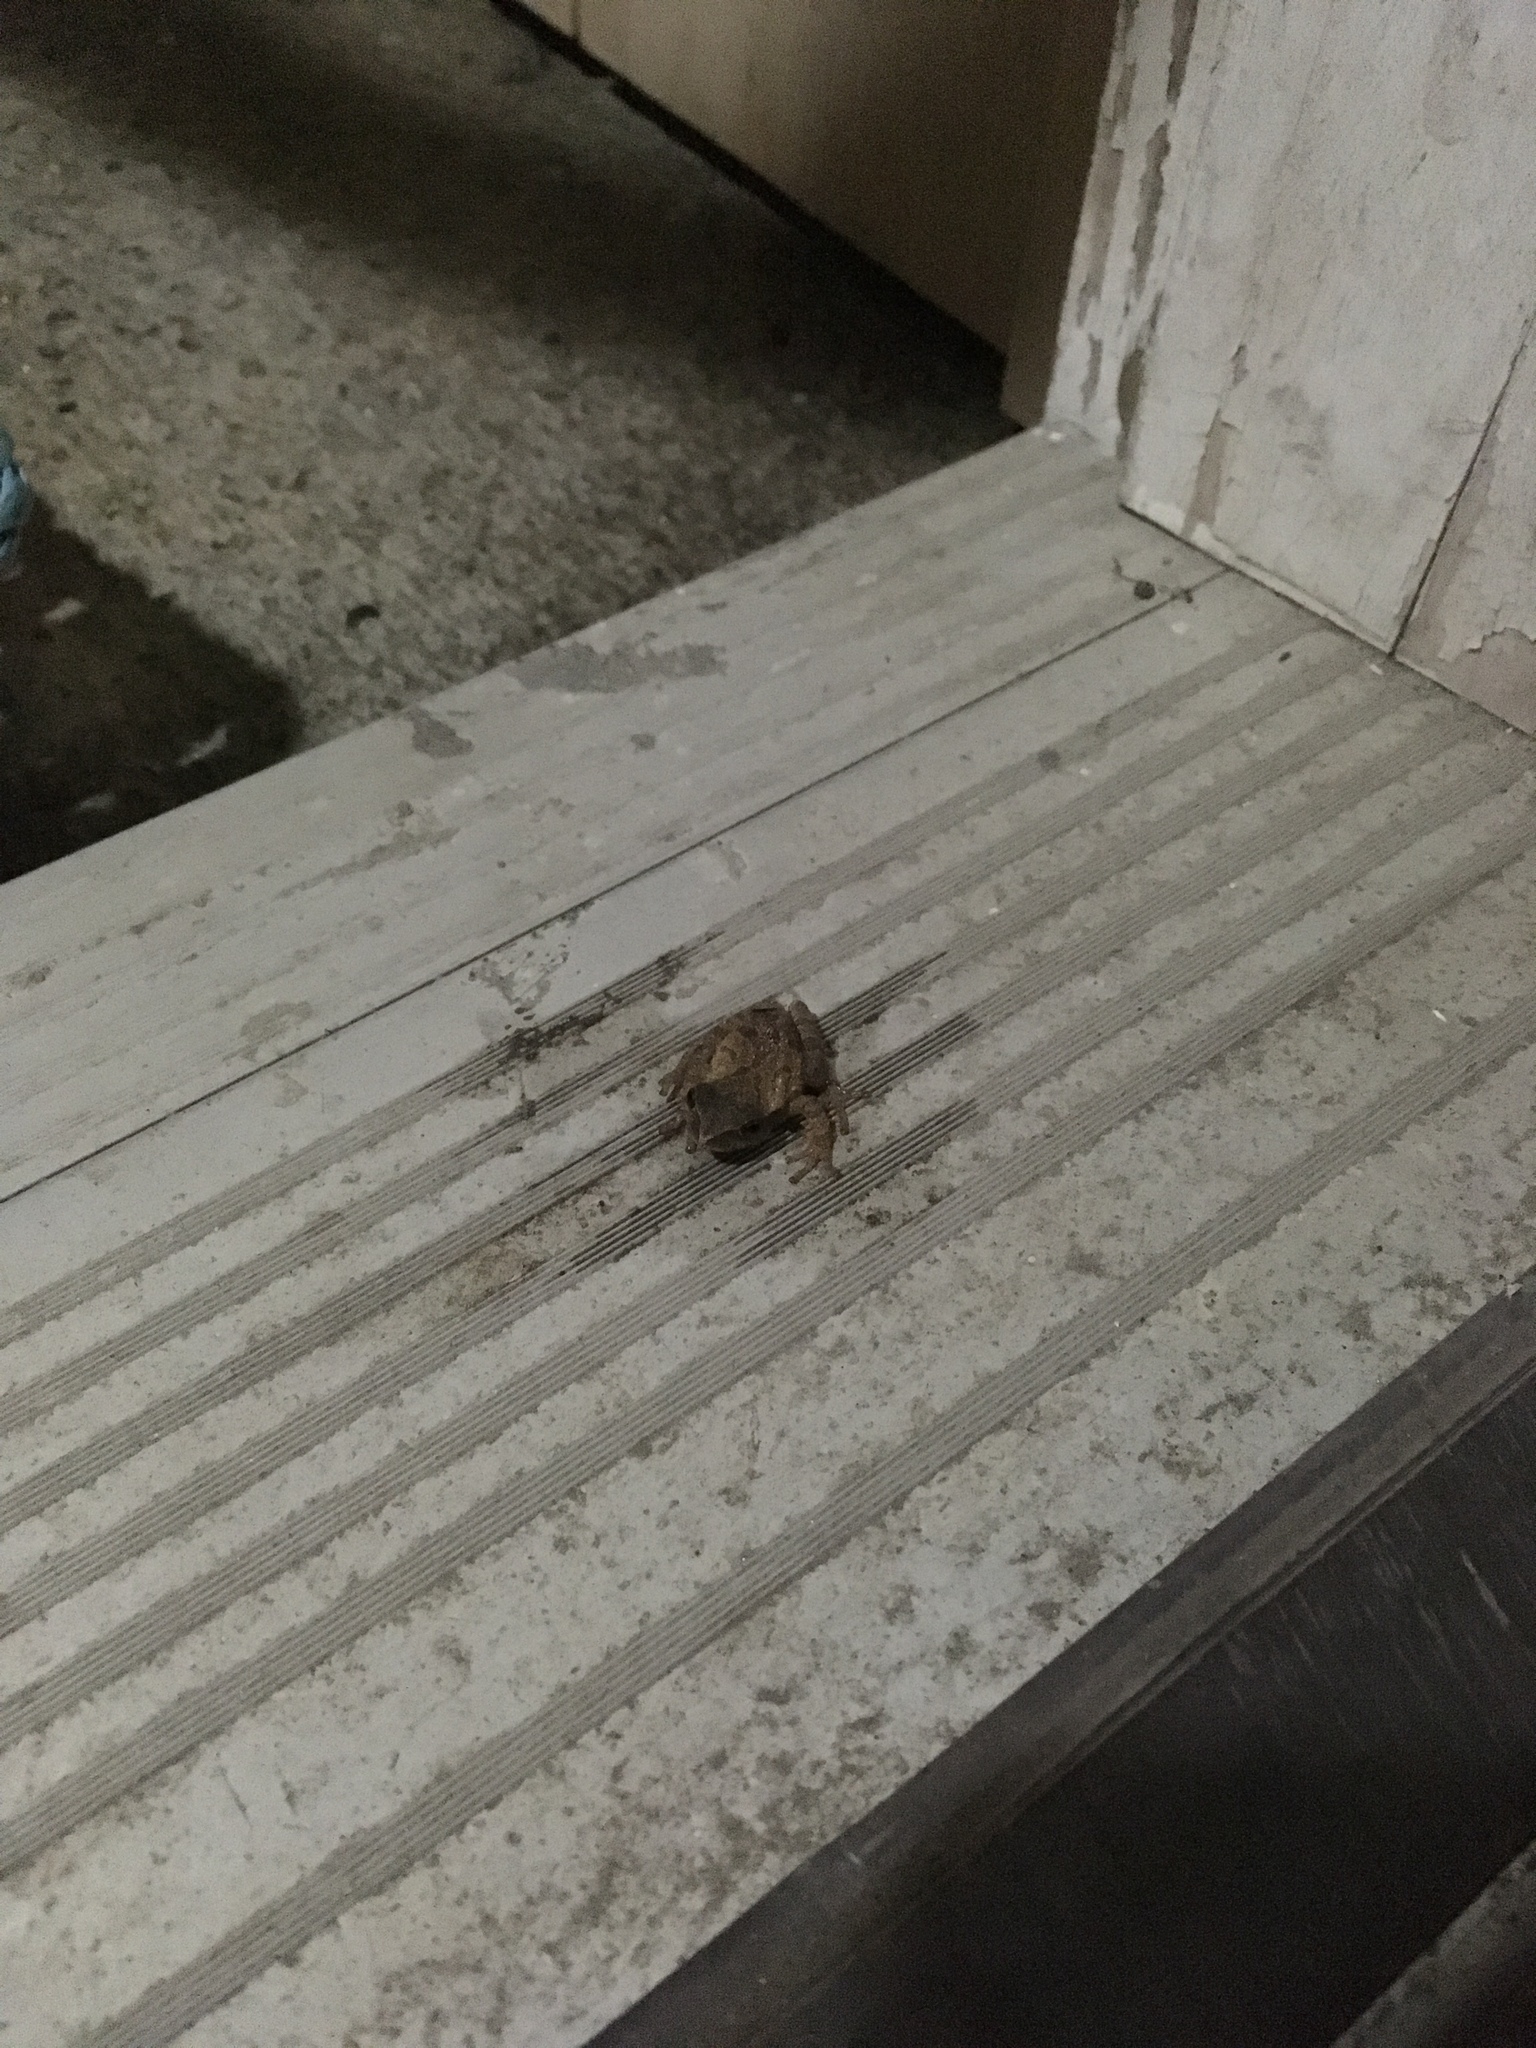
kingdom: Animalia
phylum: Chordata
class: Amphibia
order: Anura
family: Hylidae
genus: Pseudacris
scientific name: Pseudacris crucifer
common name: Spring peeper
